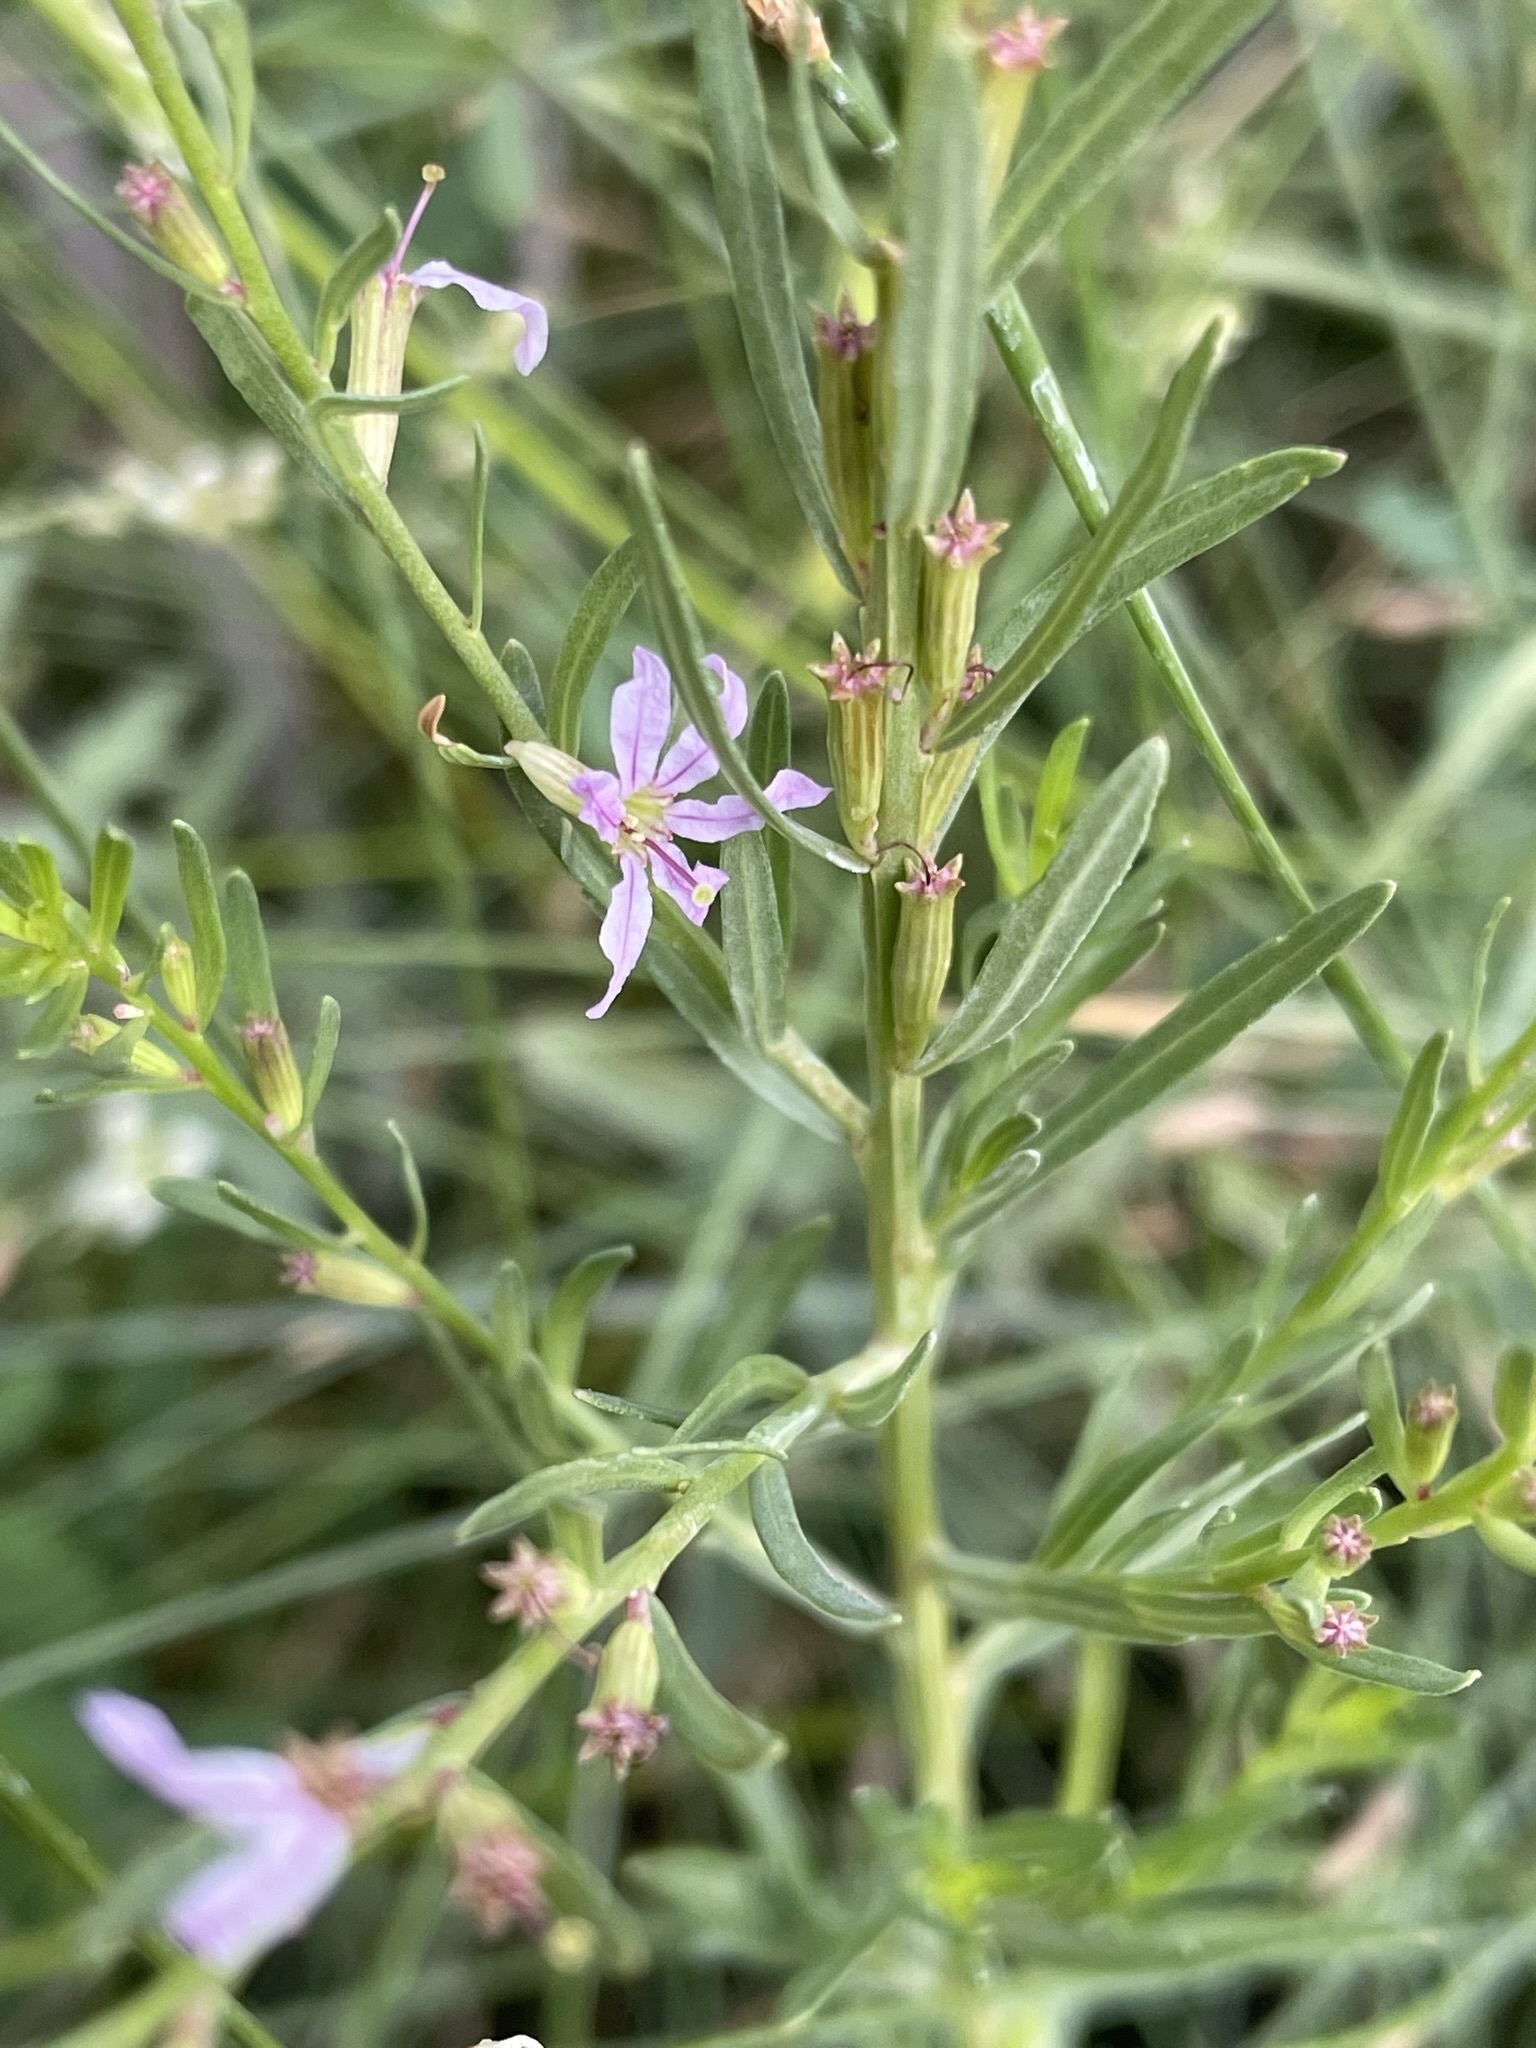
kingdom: Plantae
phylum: Tracheophyta
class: Magnoliopsida
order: Myrtales
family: Lythraceae
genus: Lythrum
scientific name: Lythrum californicum
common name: California loosestrife
